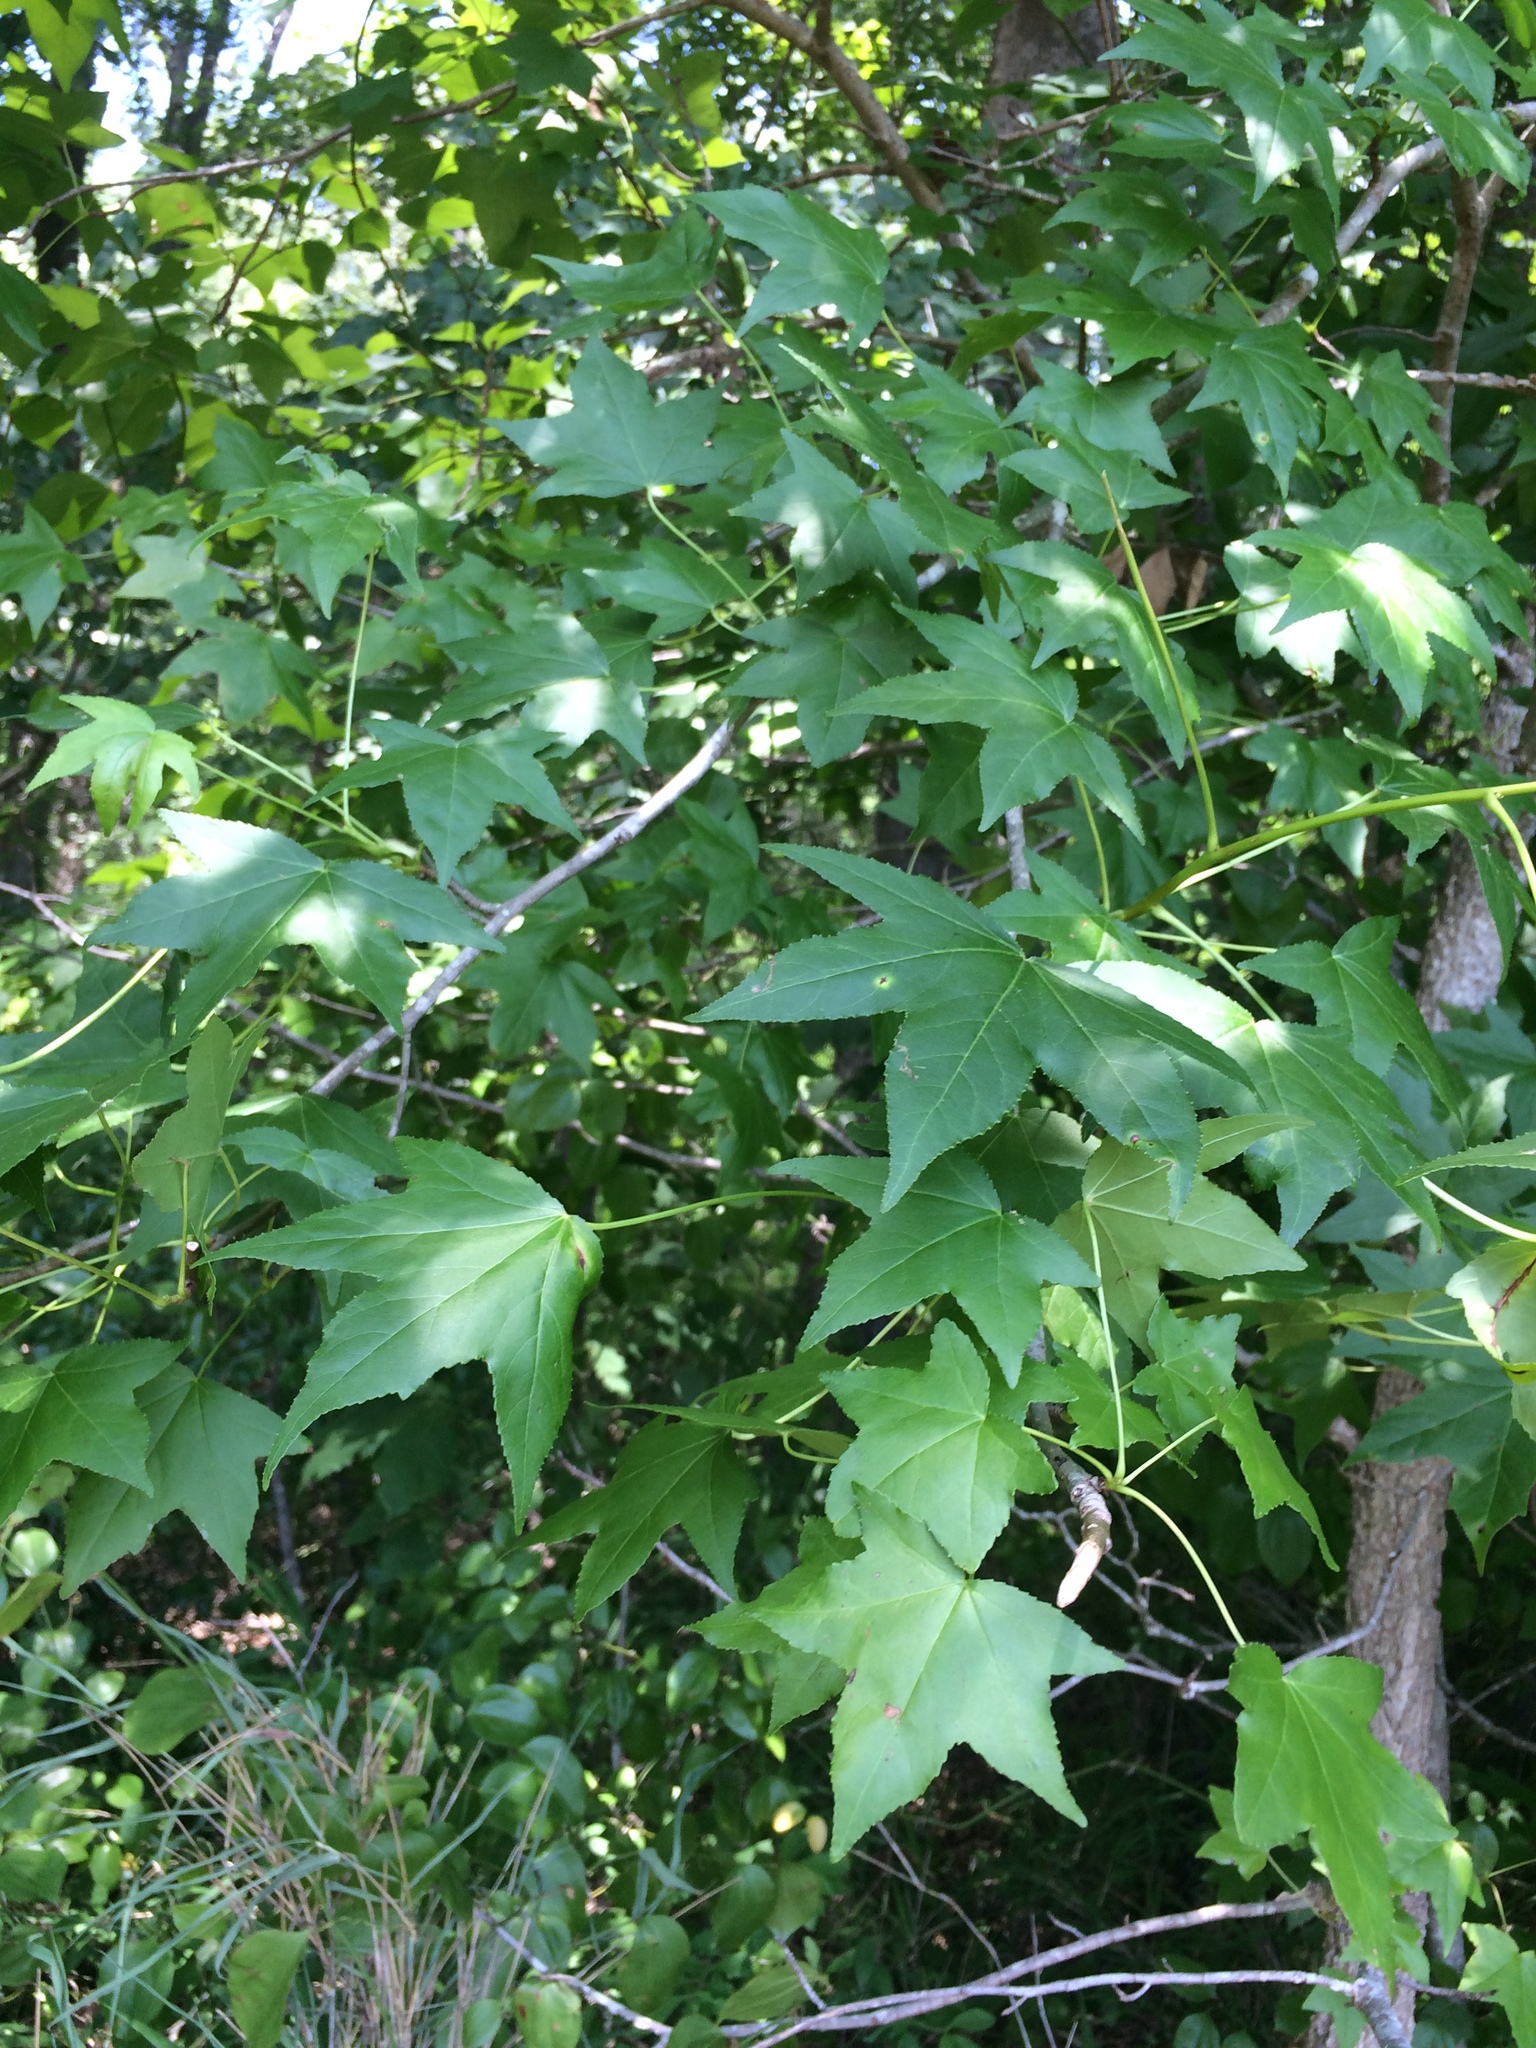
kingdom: Plantae
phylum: Tracheophyta
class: Magnoliopsida
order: Saxifragales
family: Altingiaceae
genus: Liquidambar
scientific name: Liquidambar styraciflua
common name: Sweet gum
